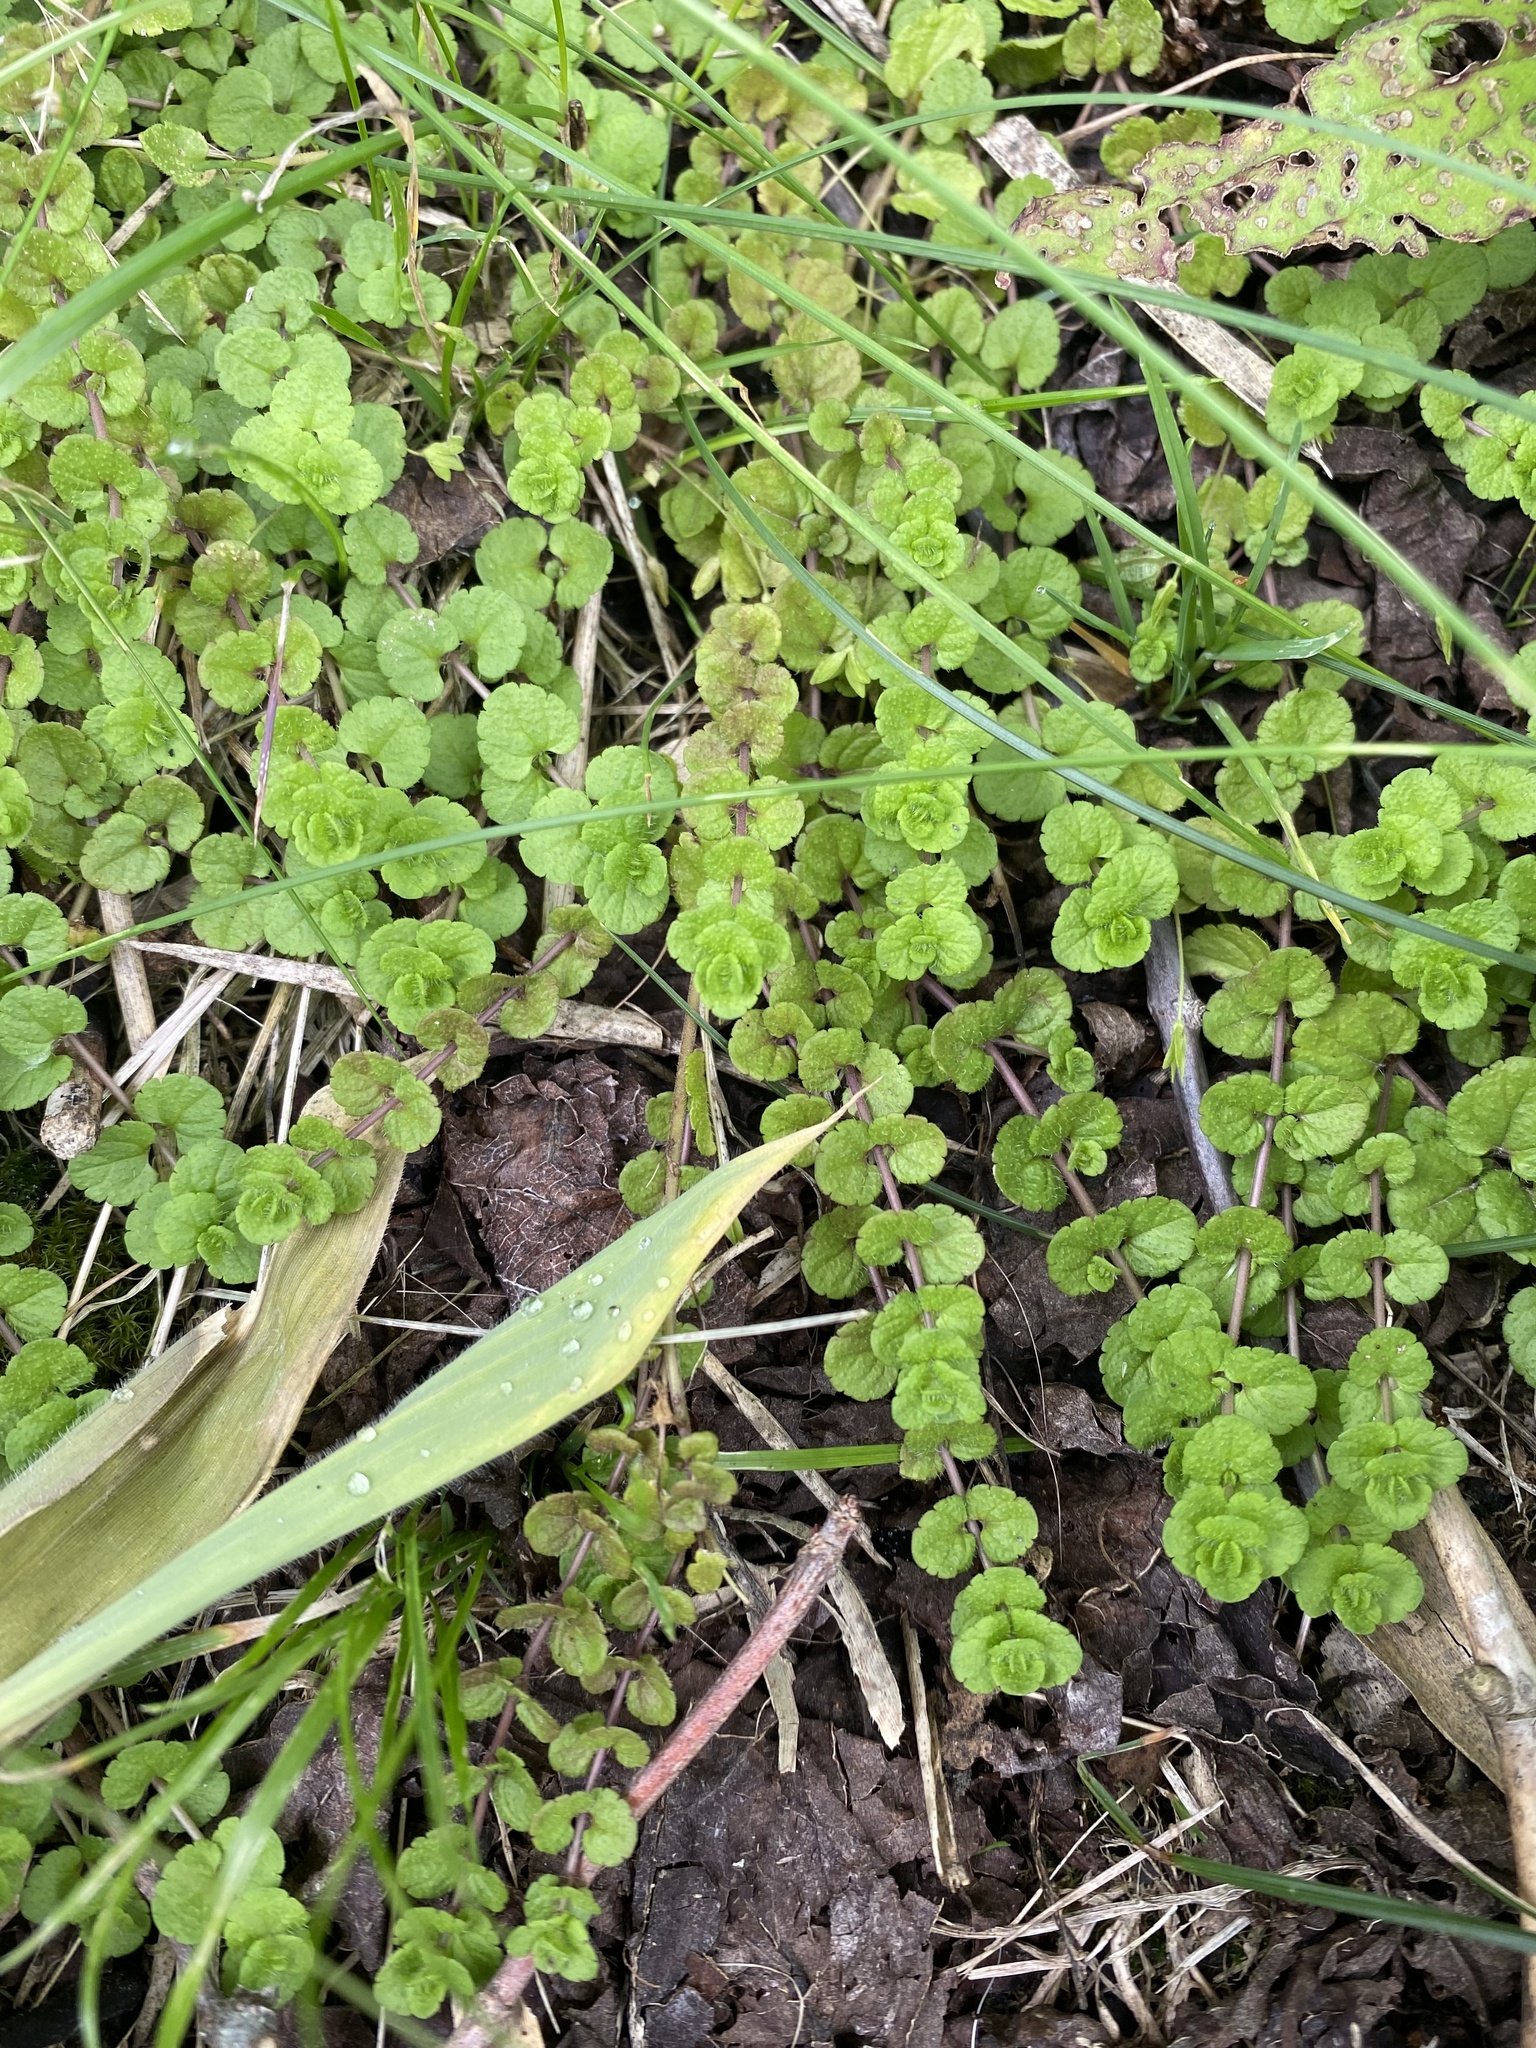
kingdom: Plantae
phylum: Tracheophyta
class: Magnoliopsida
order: Lamiales
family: Plantaginaceae
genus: Veronica
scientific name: Veronica filiformis
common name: Slender speedwell
